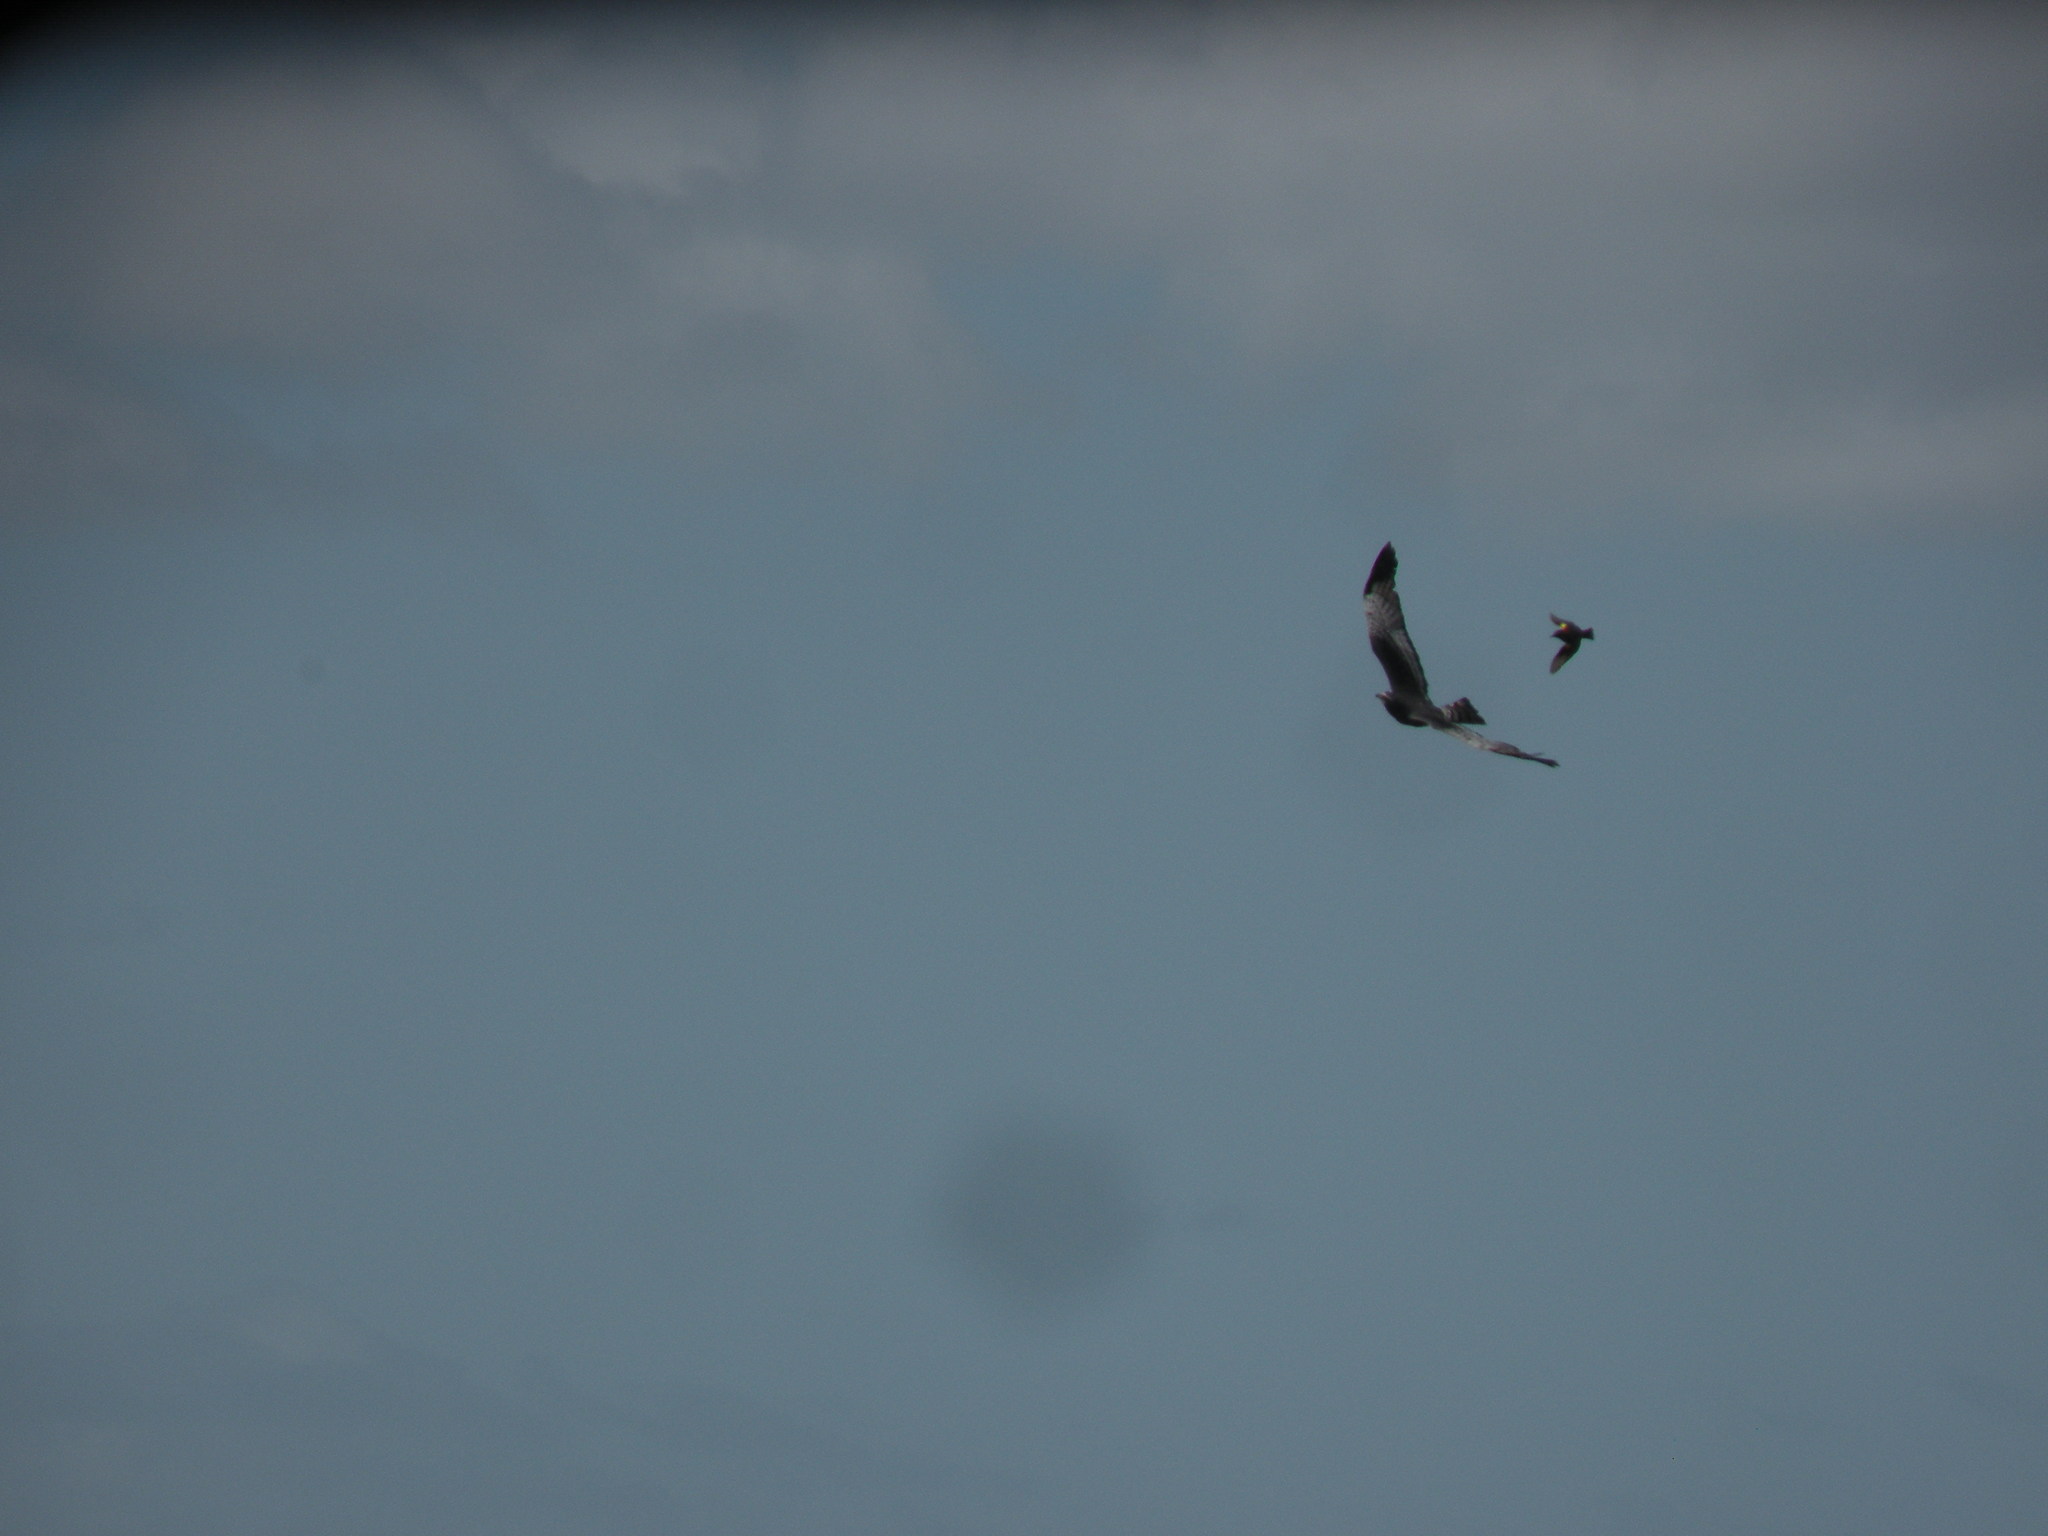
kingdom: Animalia
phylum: Chordata
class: Aves
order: Accipitriformes
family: Accipitridae
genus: Circus
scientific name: Circus buffoni
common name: Long-winged harrier
